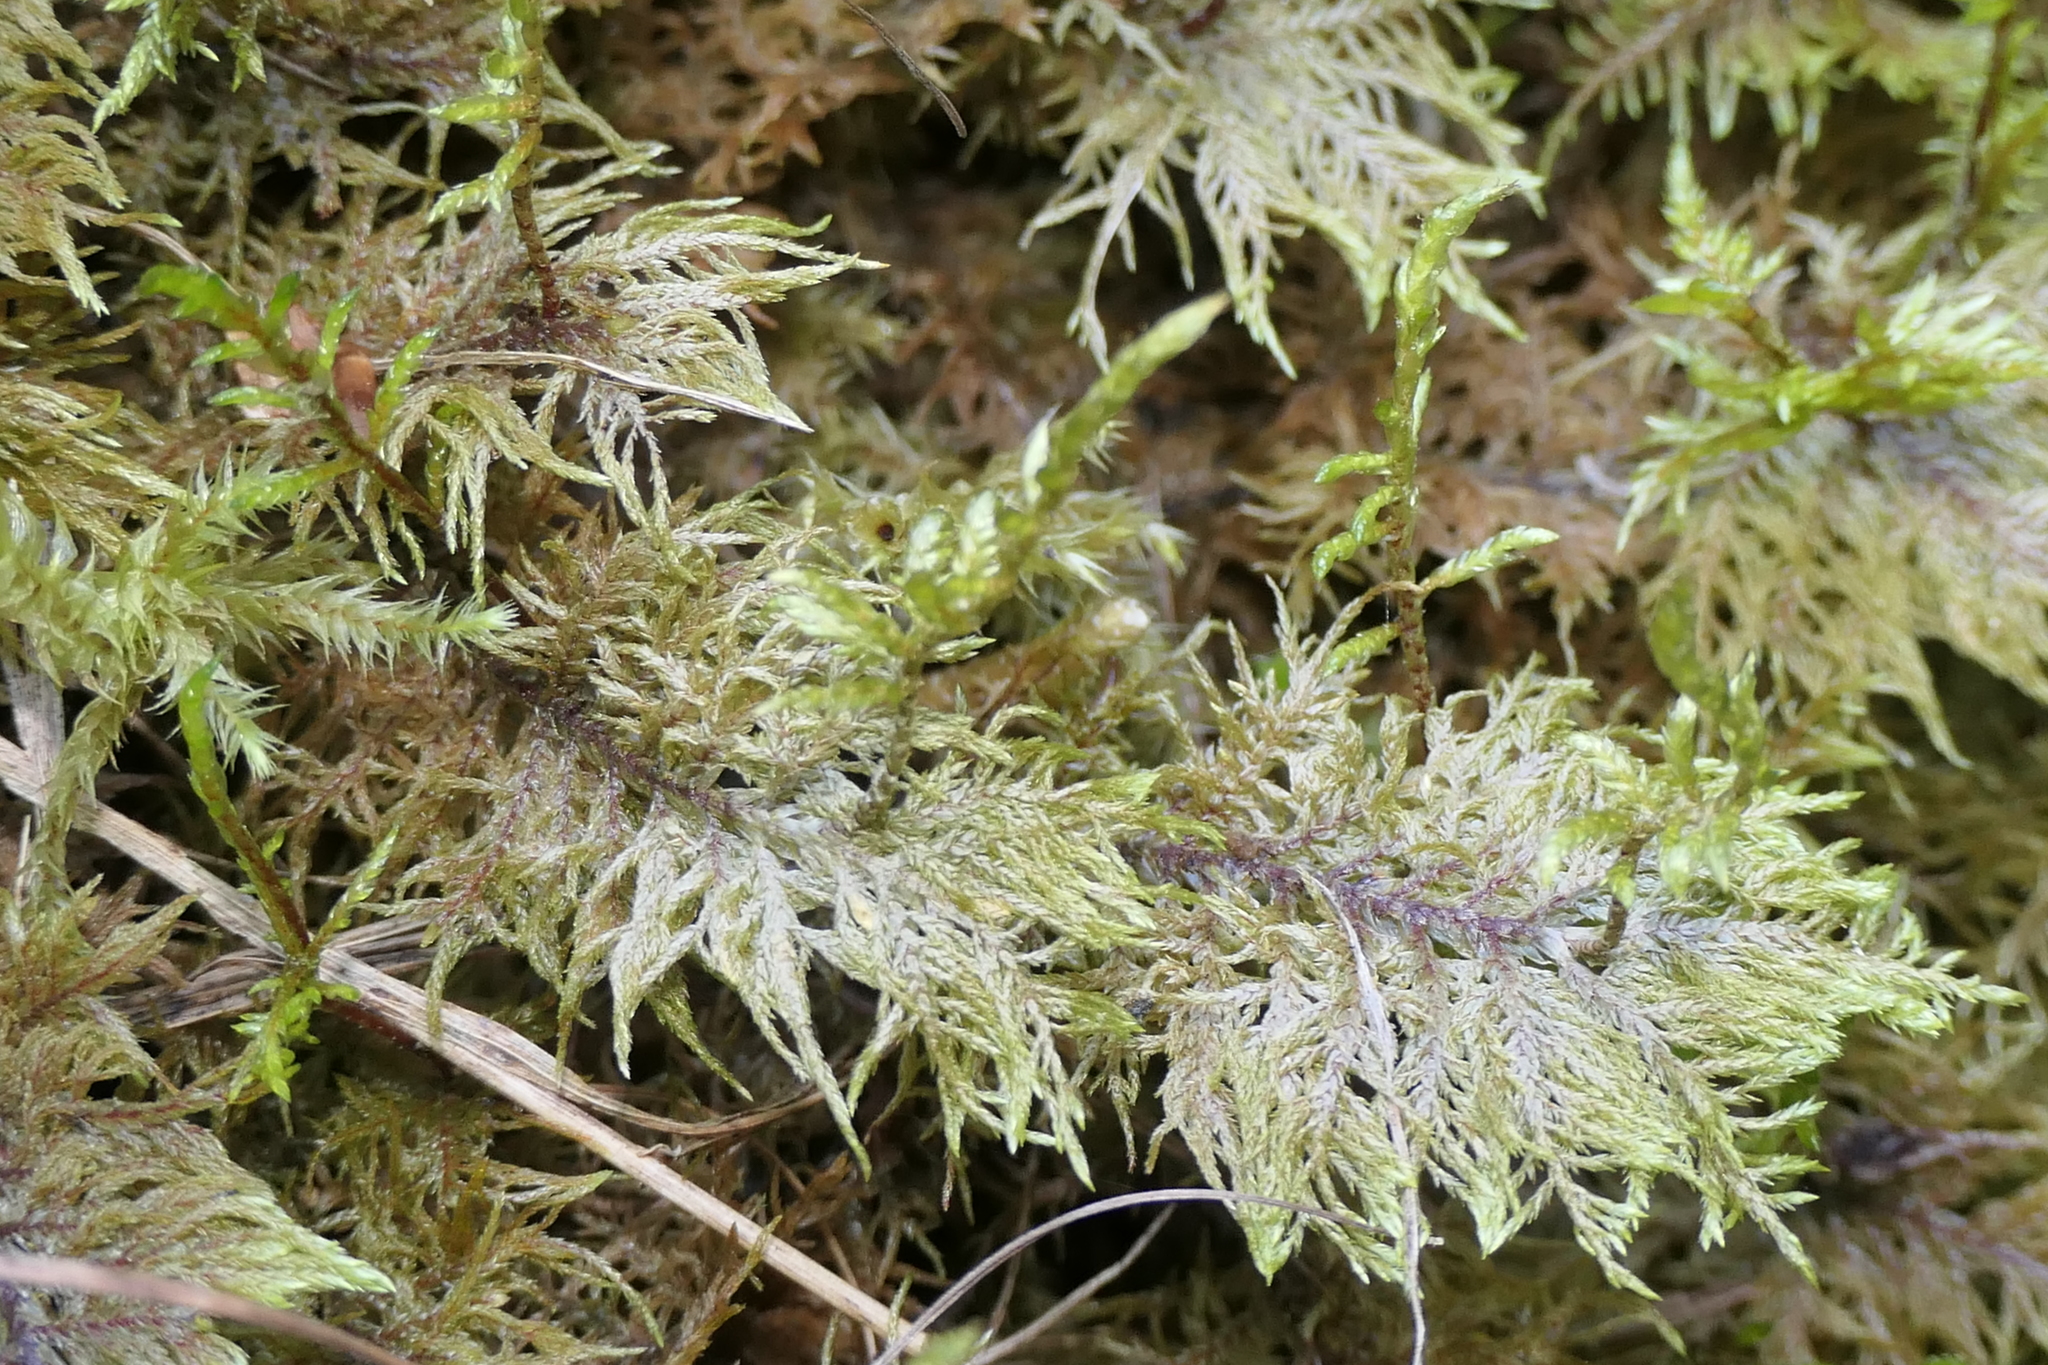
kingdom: Plantae
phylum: Bryophyta
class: Bryopsida
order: Hypnales
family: Hylocomiaceae
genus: Hylocomium
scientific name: Hylocomium splendens
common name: Stairstep moss
